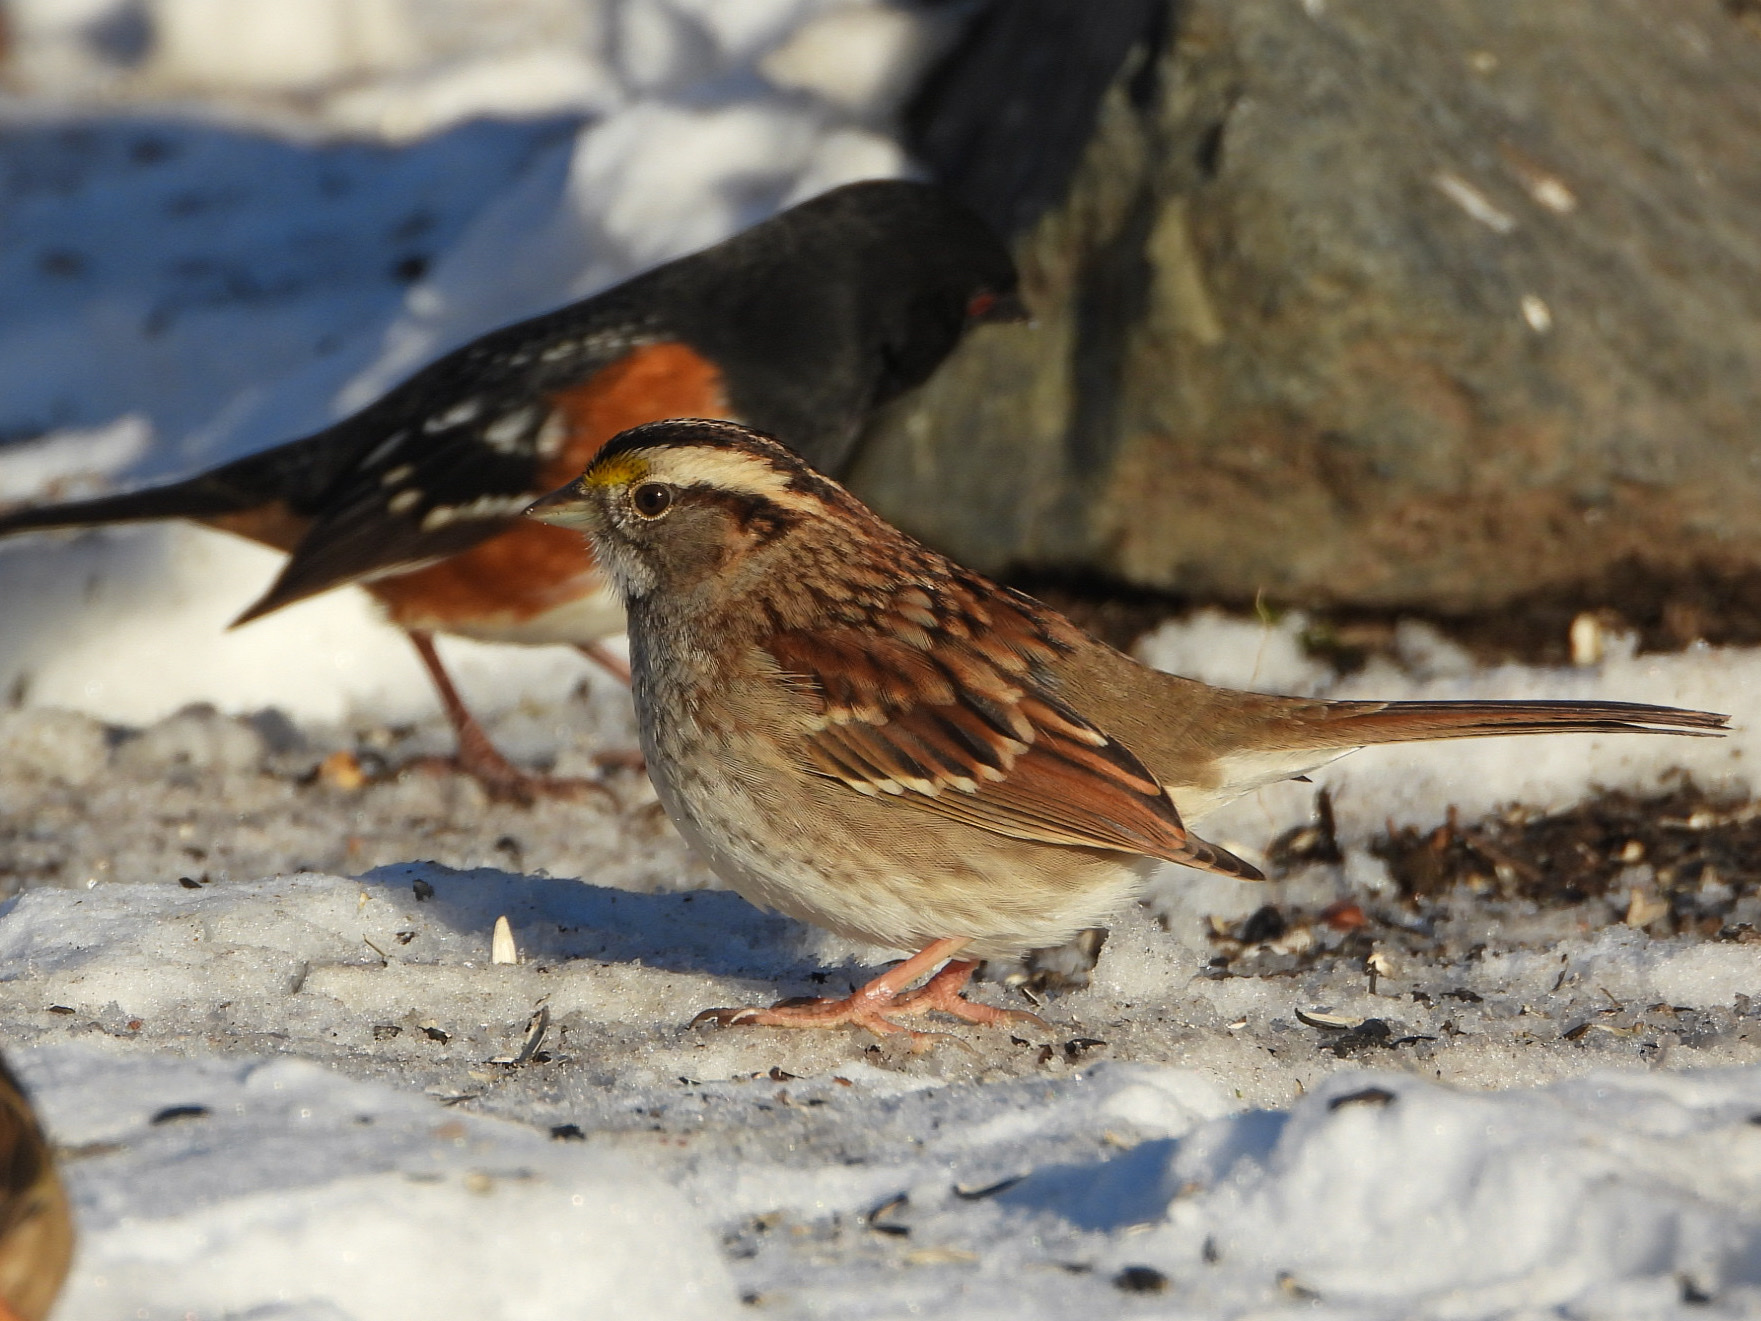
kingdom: Animalia
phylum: Chordata
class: Aves
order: Passeriformes
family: Passerellidae
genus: Zonotrichia
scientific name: Zonotrichia albicollis
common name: White-throated sparrow
